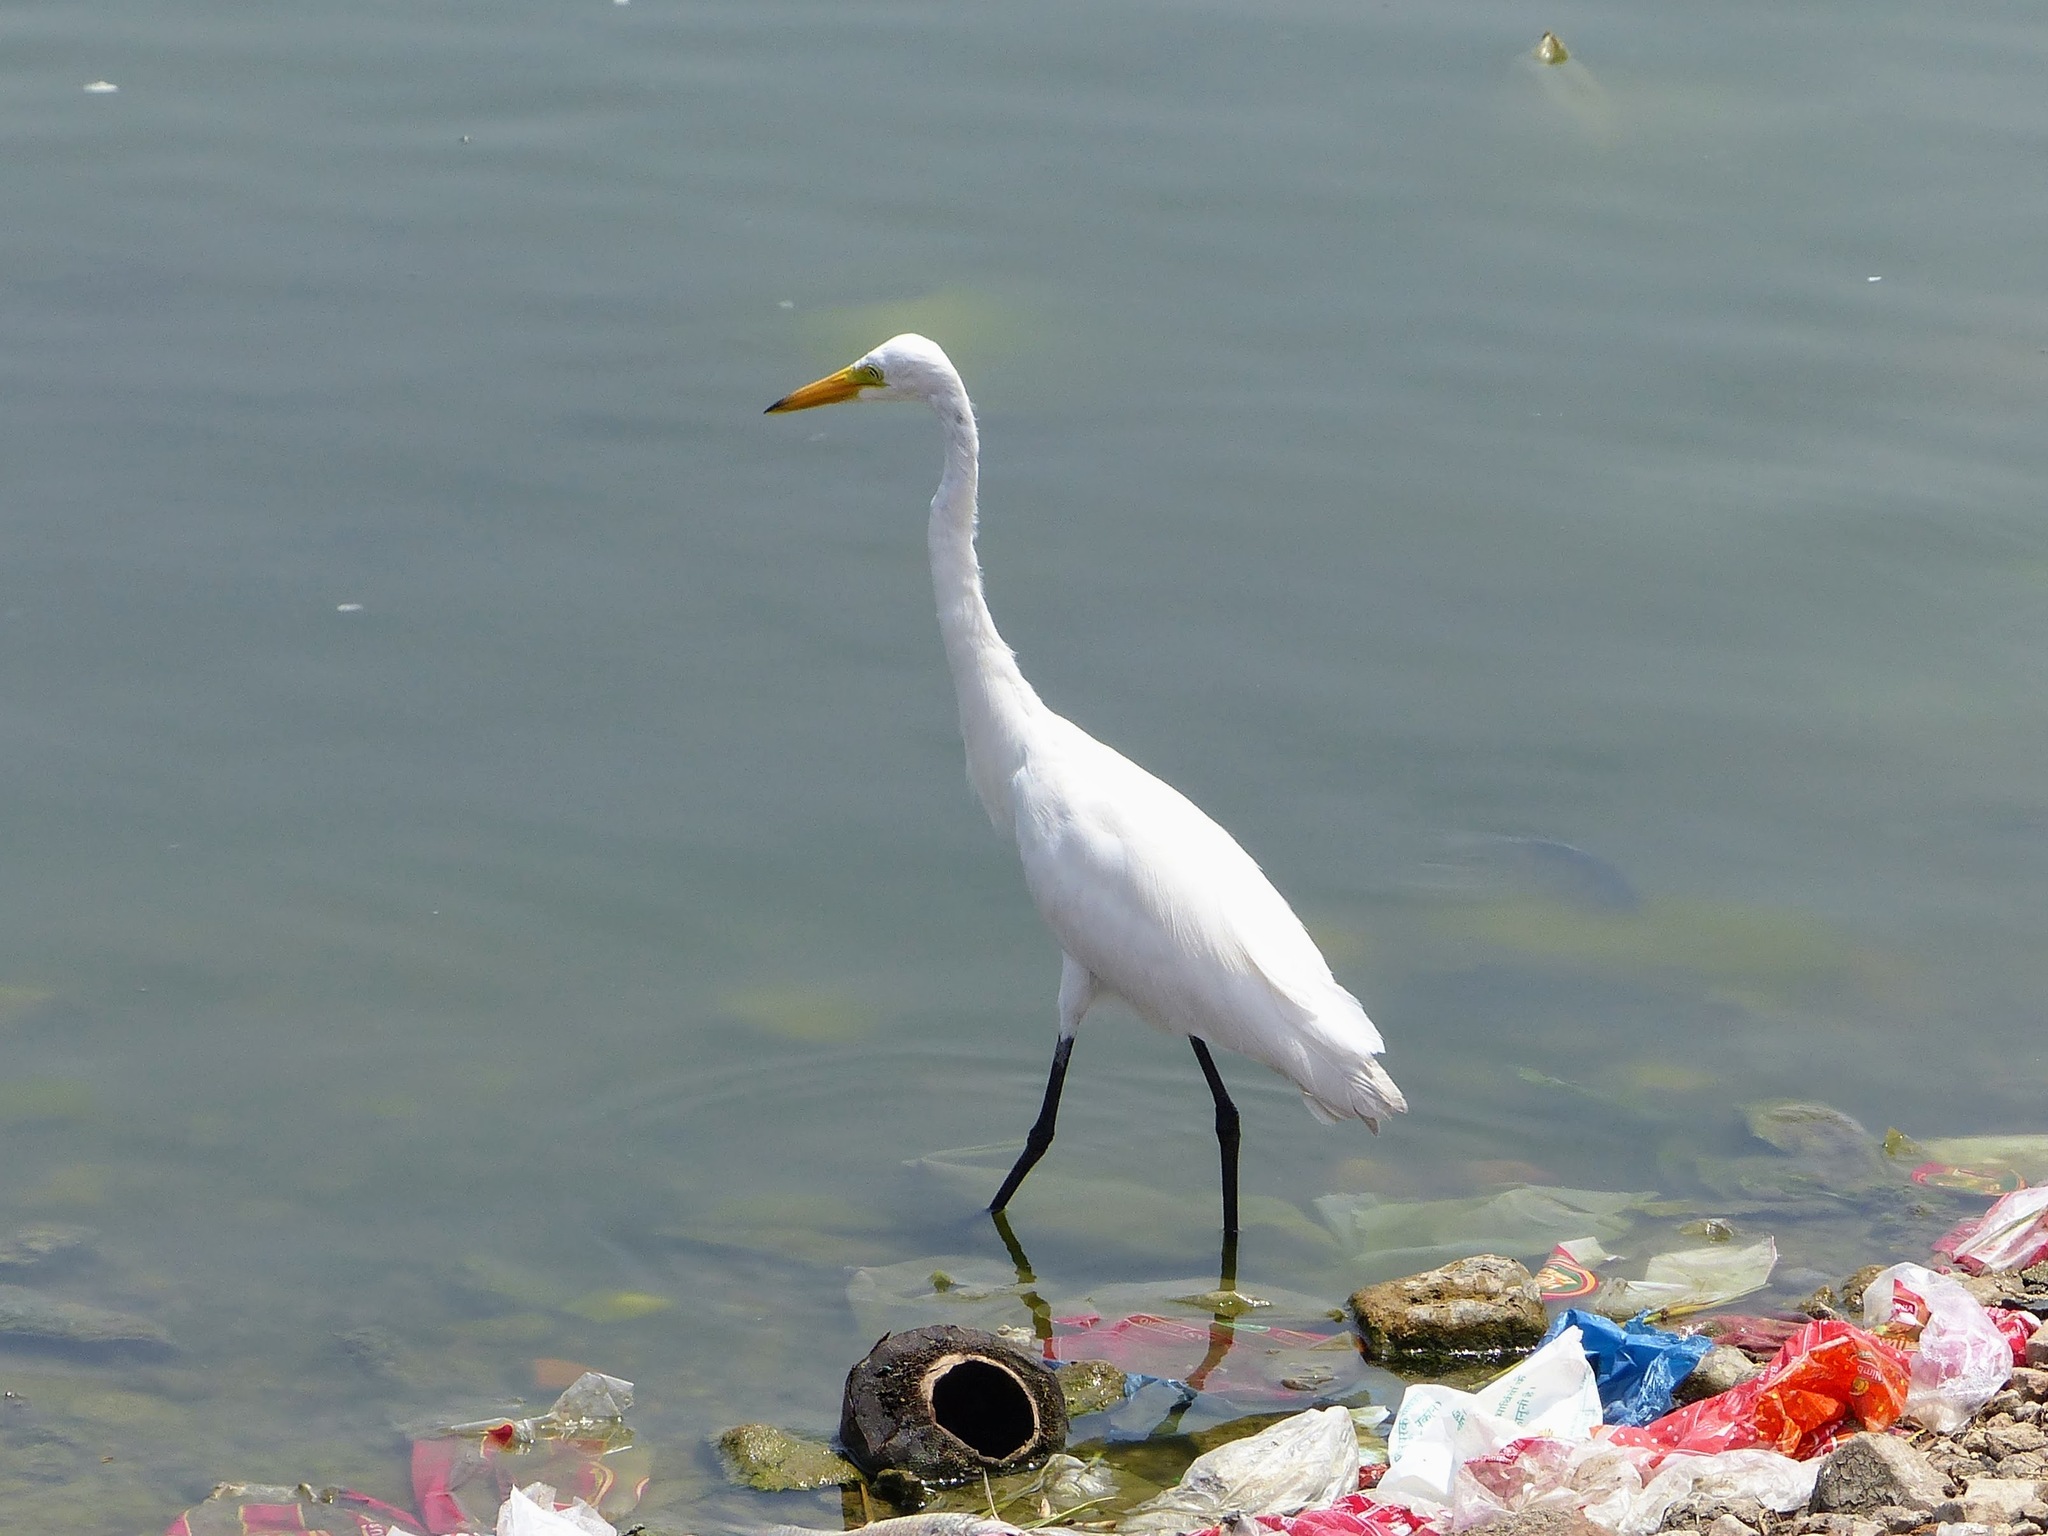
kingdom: Animalia
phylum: Chordata
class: Aves
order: Pelecaniformes
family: Ardeidae
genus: Egretta
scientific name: Egretta intermedia
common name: Intermediate egret
